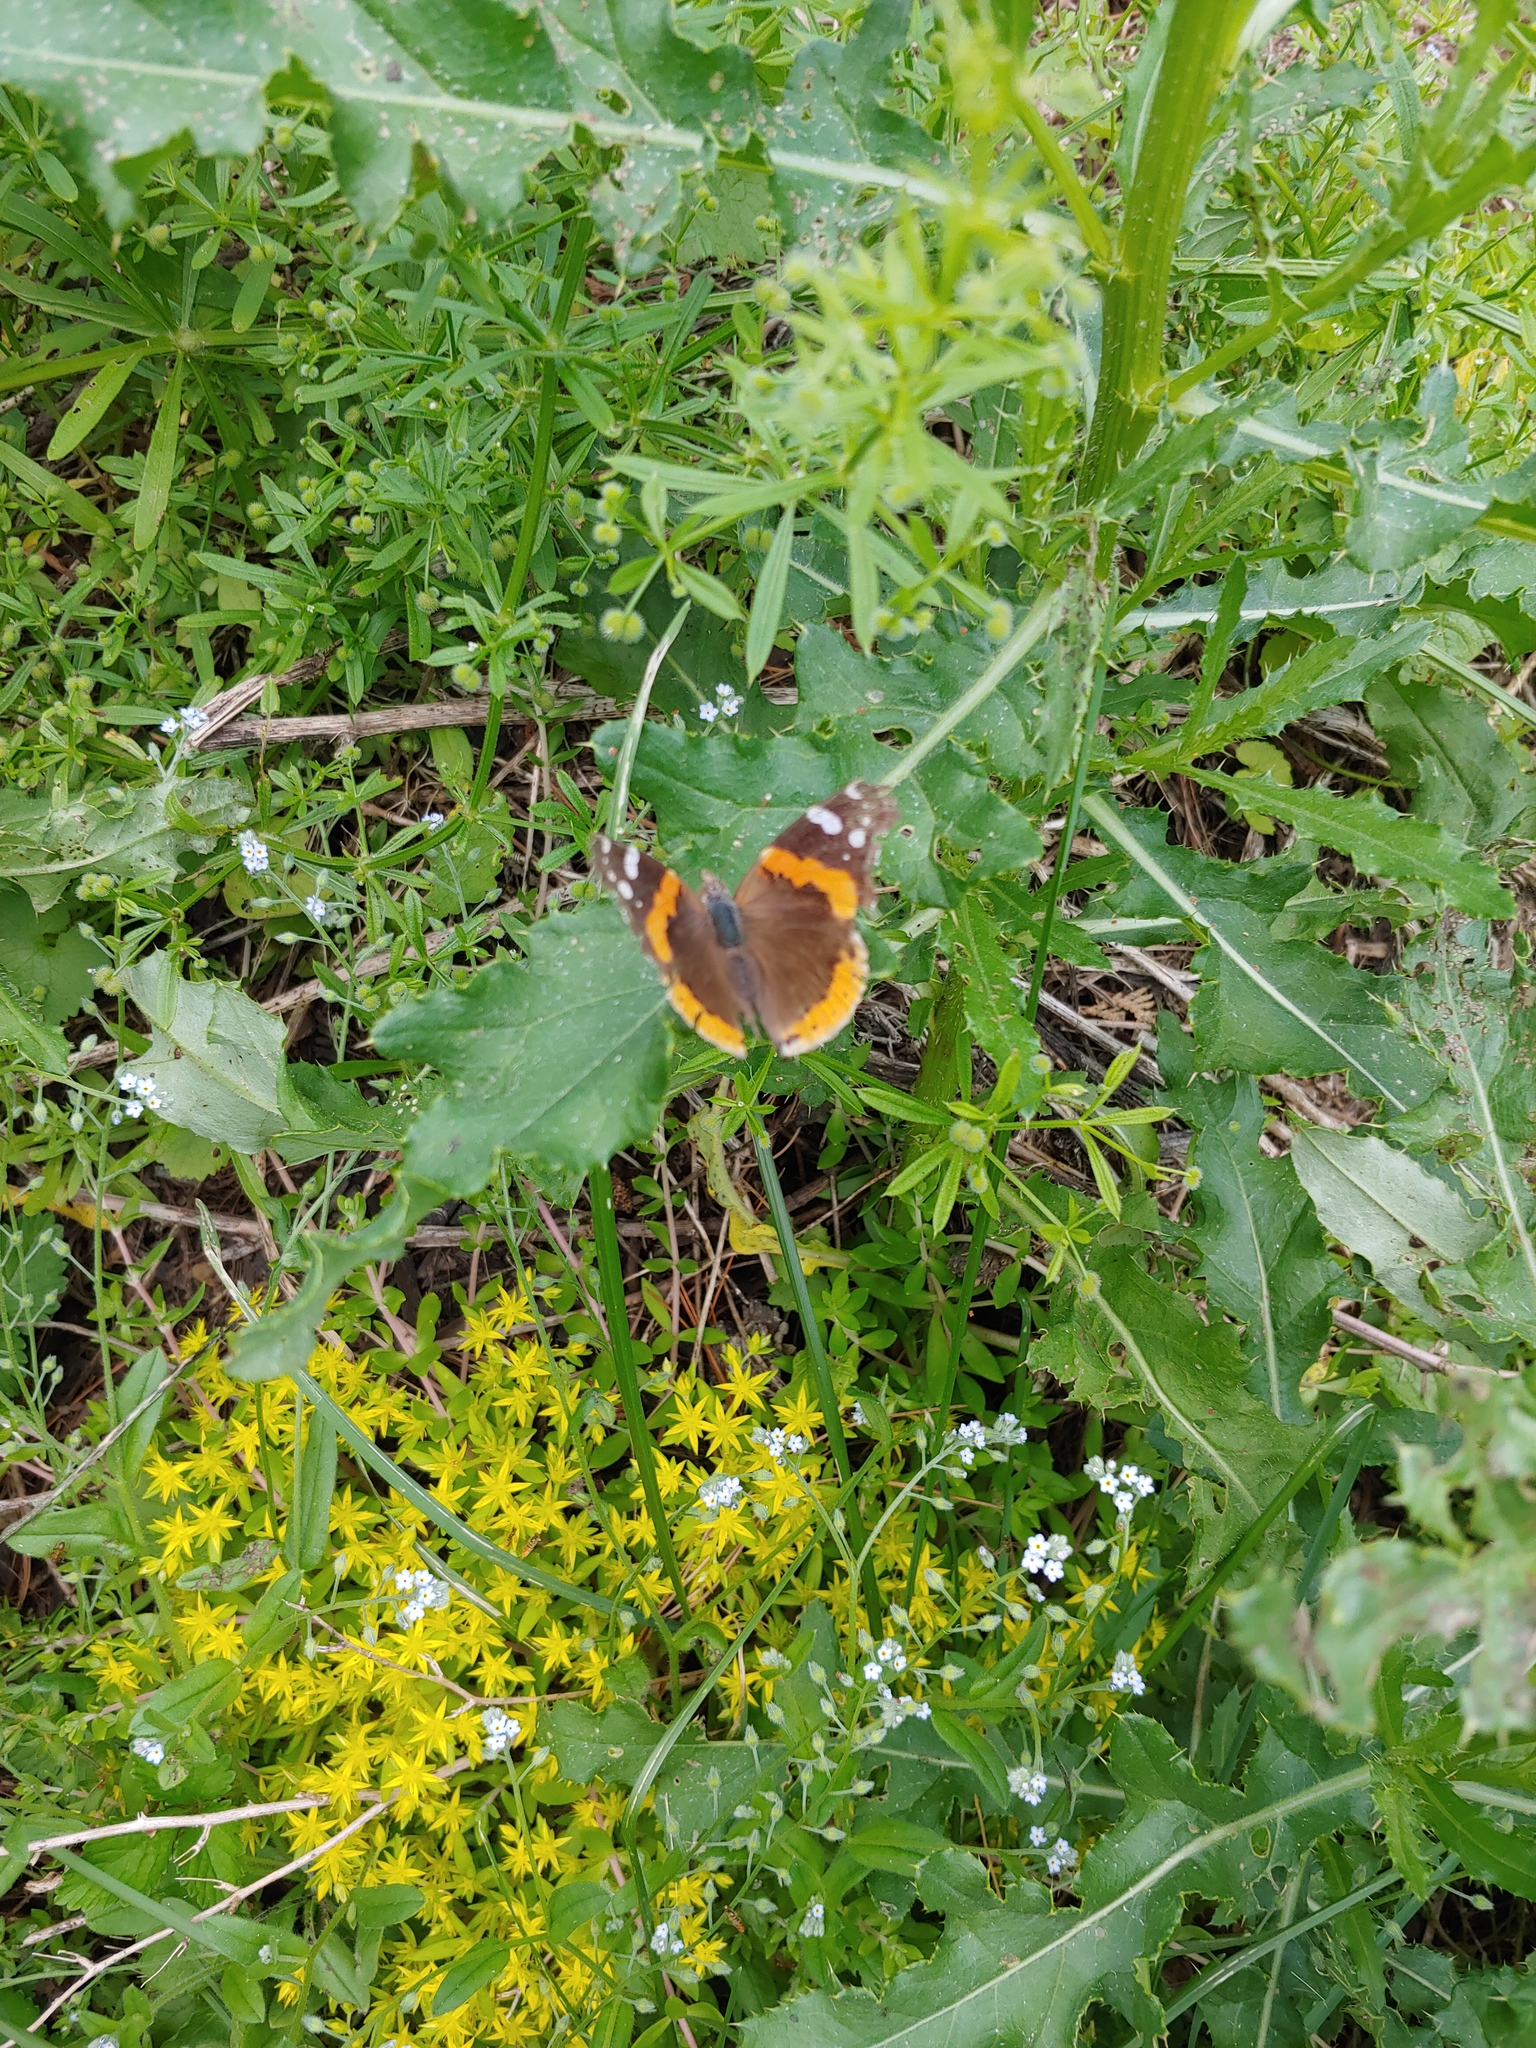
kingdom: Animalia
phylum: Arthropoda
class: Insecta
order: Lepidoptera
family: Nymphalidae
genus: Vanessa
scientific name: Vanessa atalanta
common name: Red admiral
